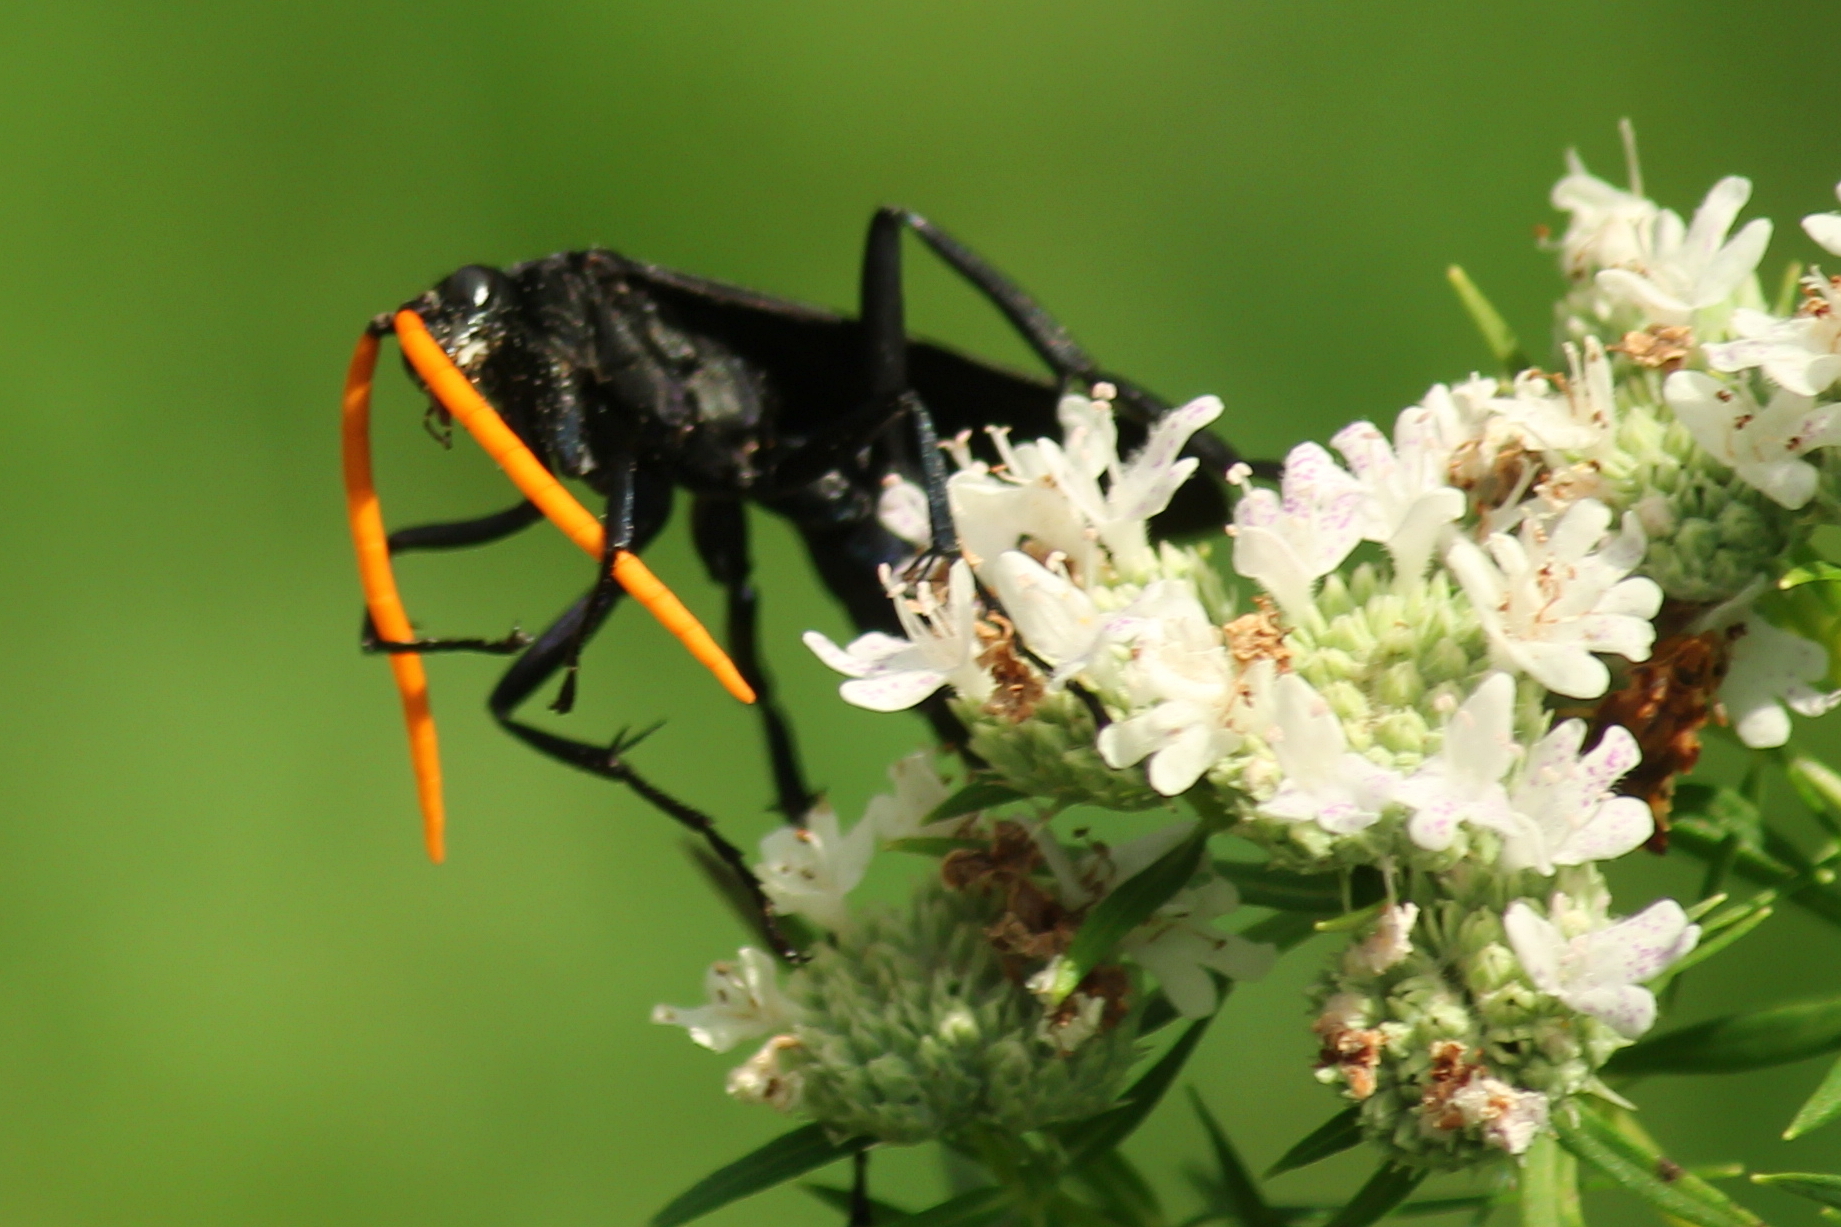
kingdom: Animalia
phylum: Arthropoda
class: Insecta
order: Hymenoptera
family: Pompilidae
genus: Pepsis
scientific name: Pepsis menechma
